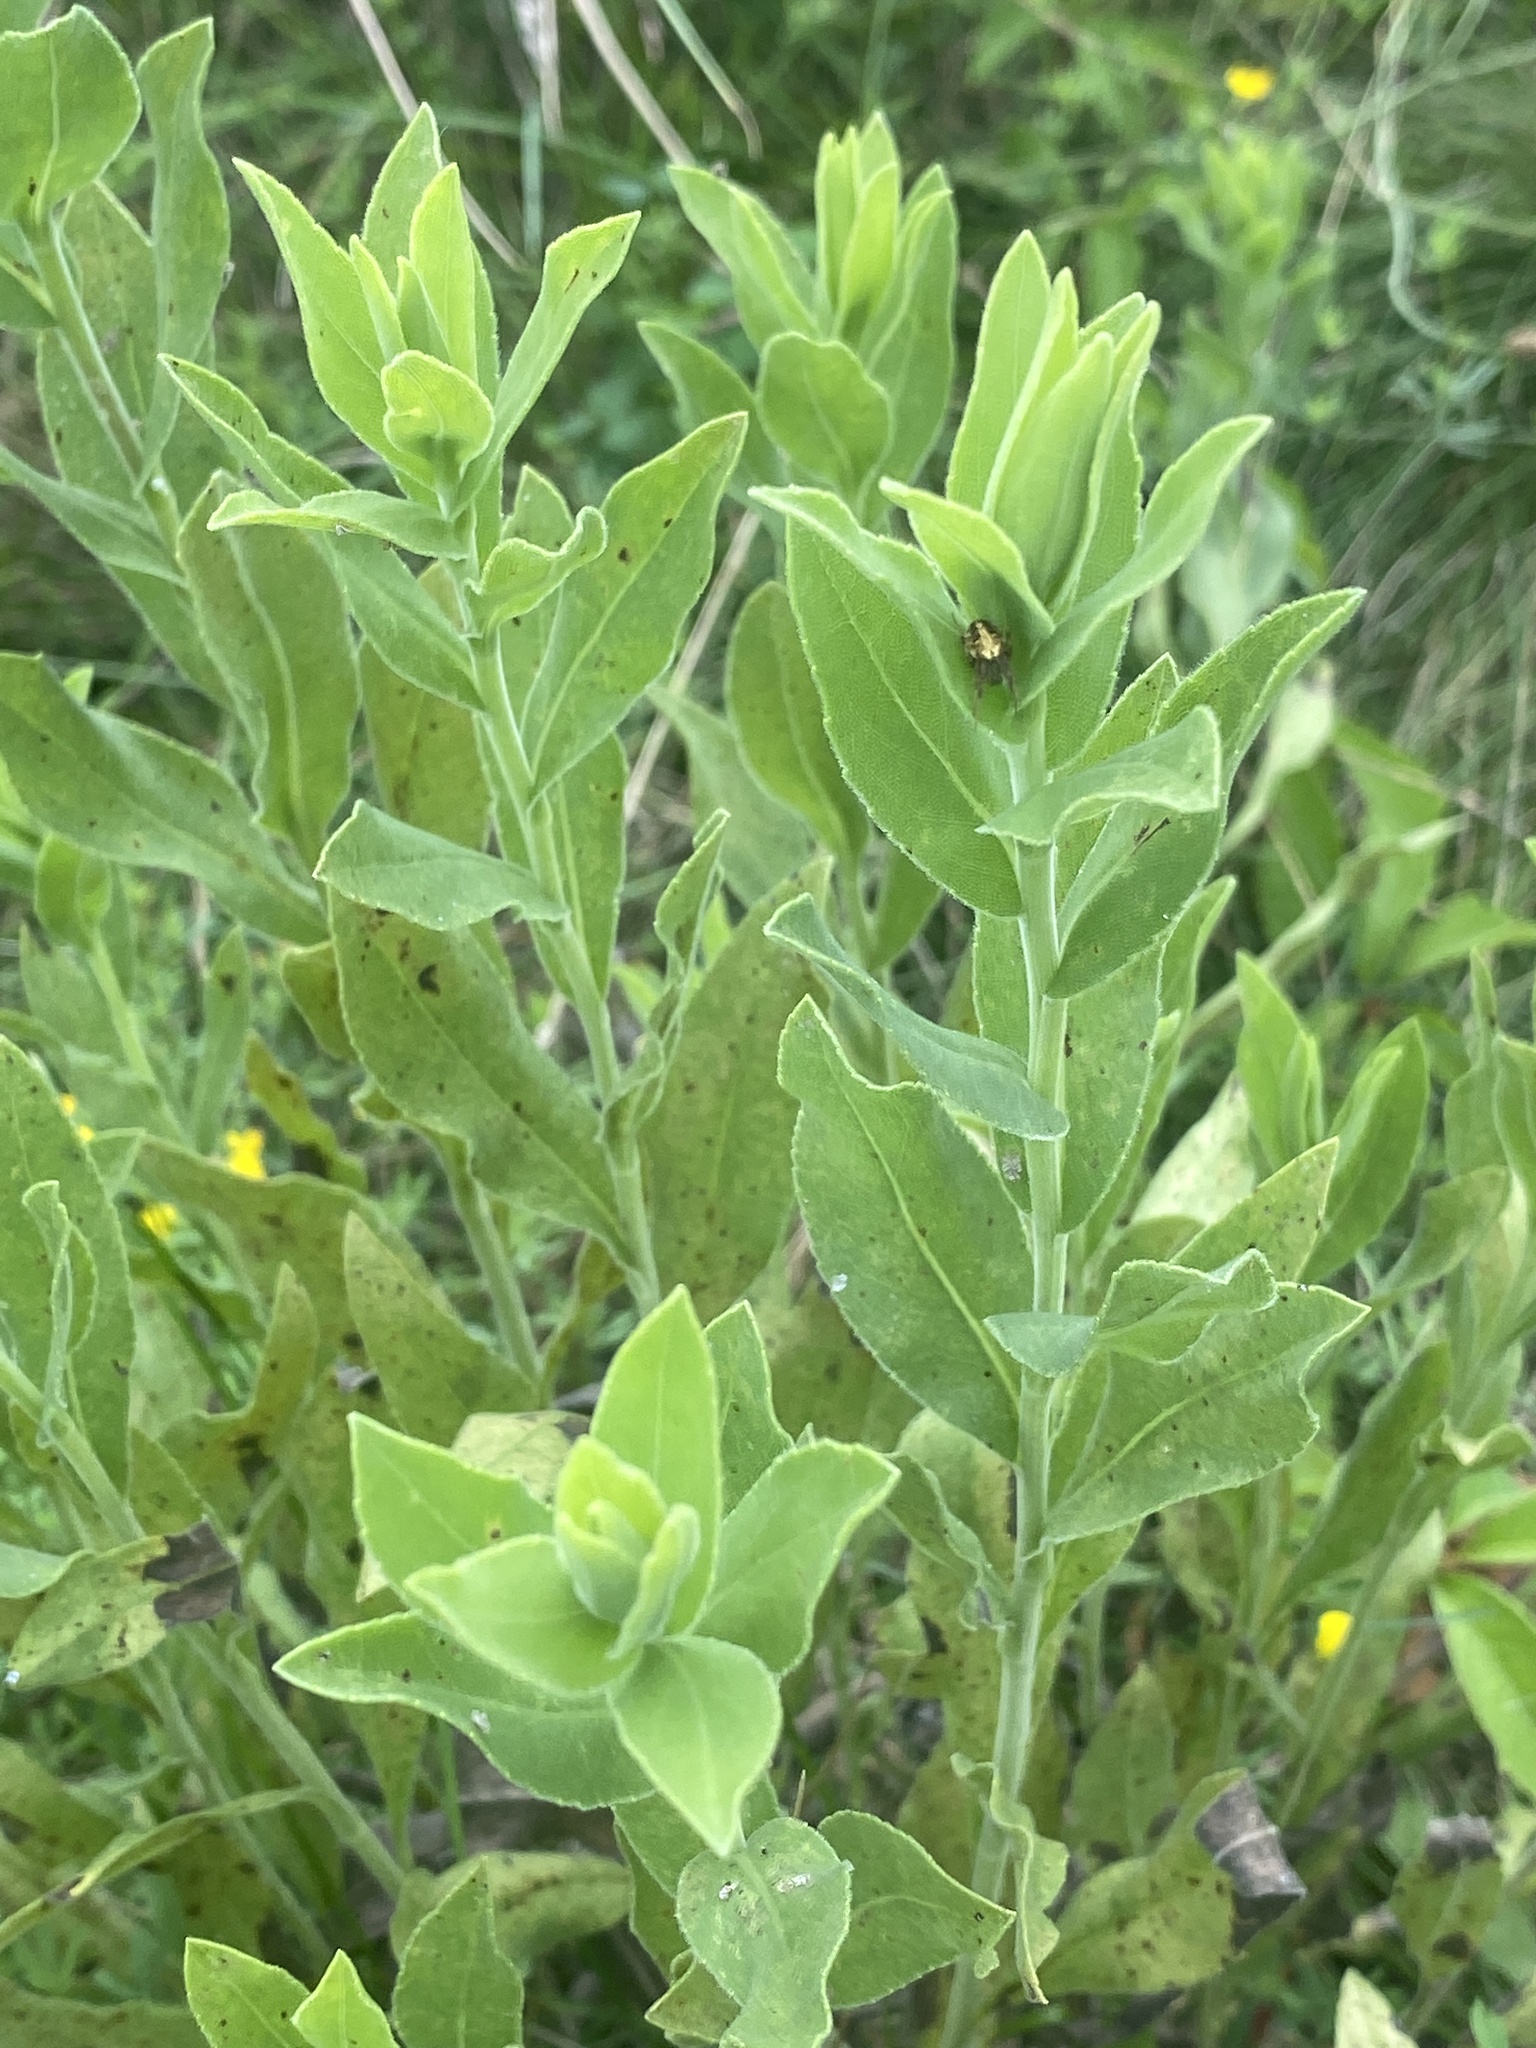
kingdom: Plantae
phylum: Tracheophyta
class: Magnoliopsida
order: Asterales
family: Asteraceae
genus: Solidago
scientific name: Solidago rigida
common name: Rigid goldenrod
